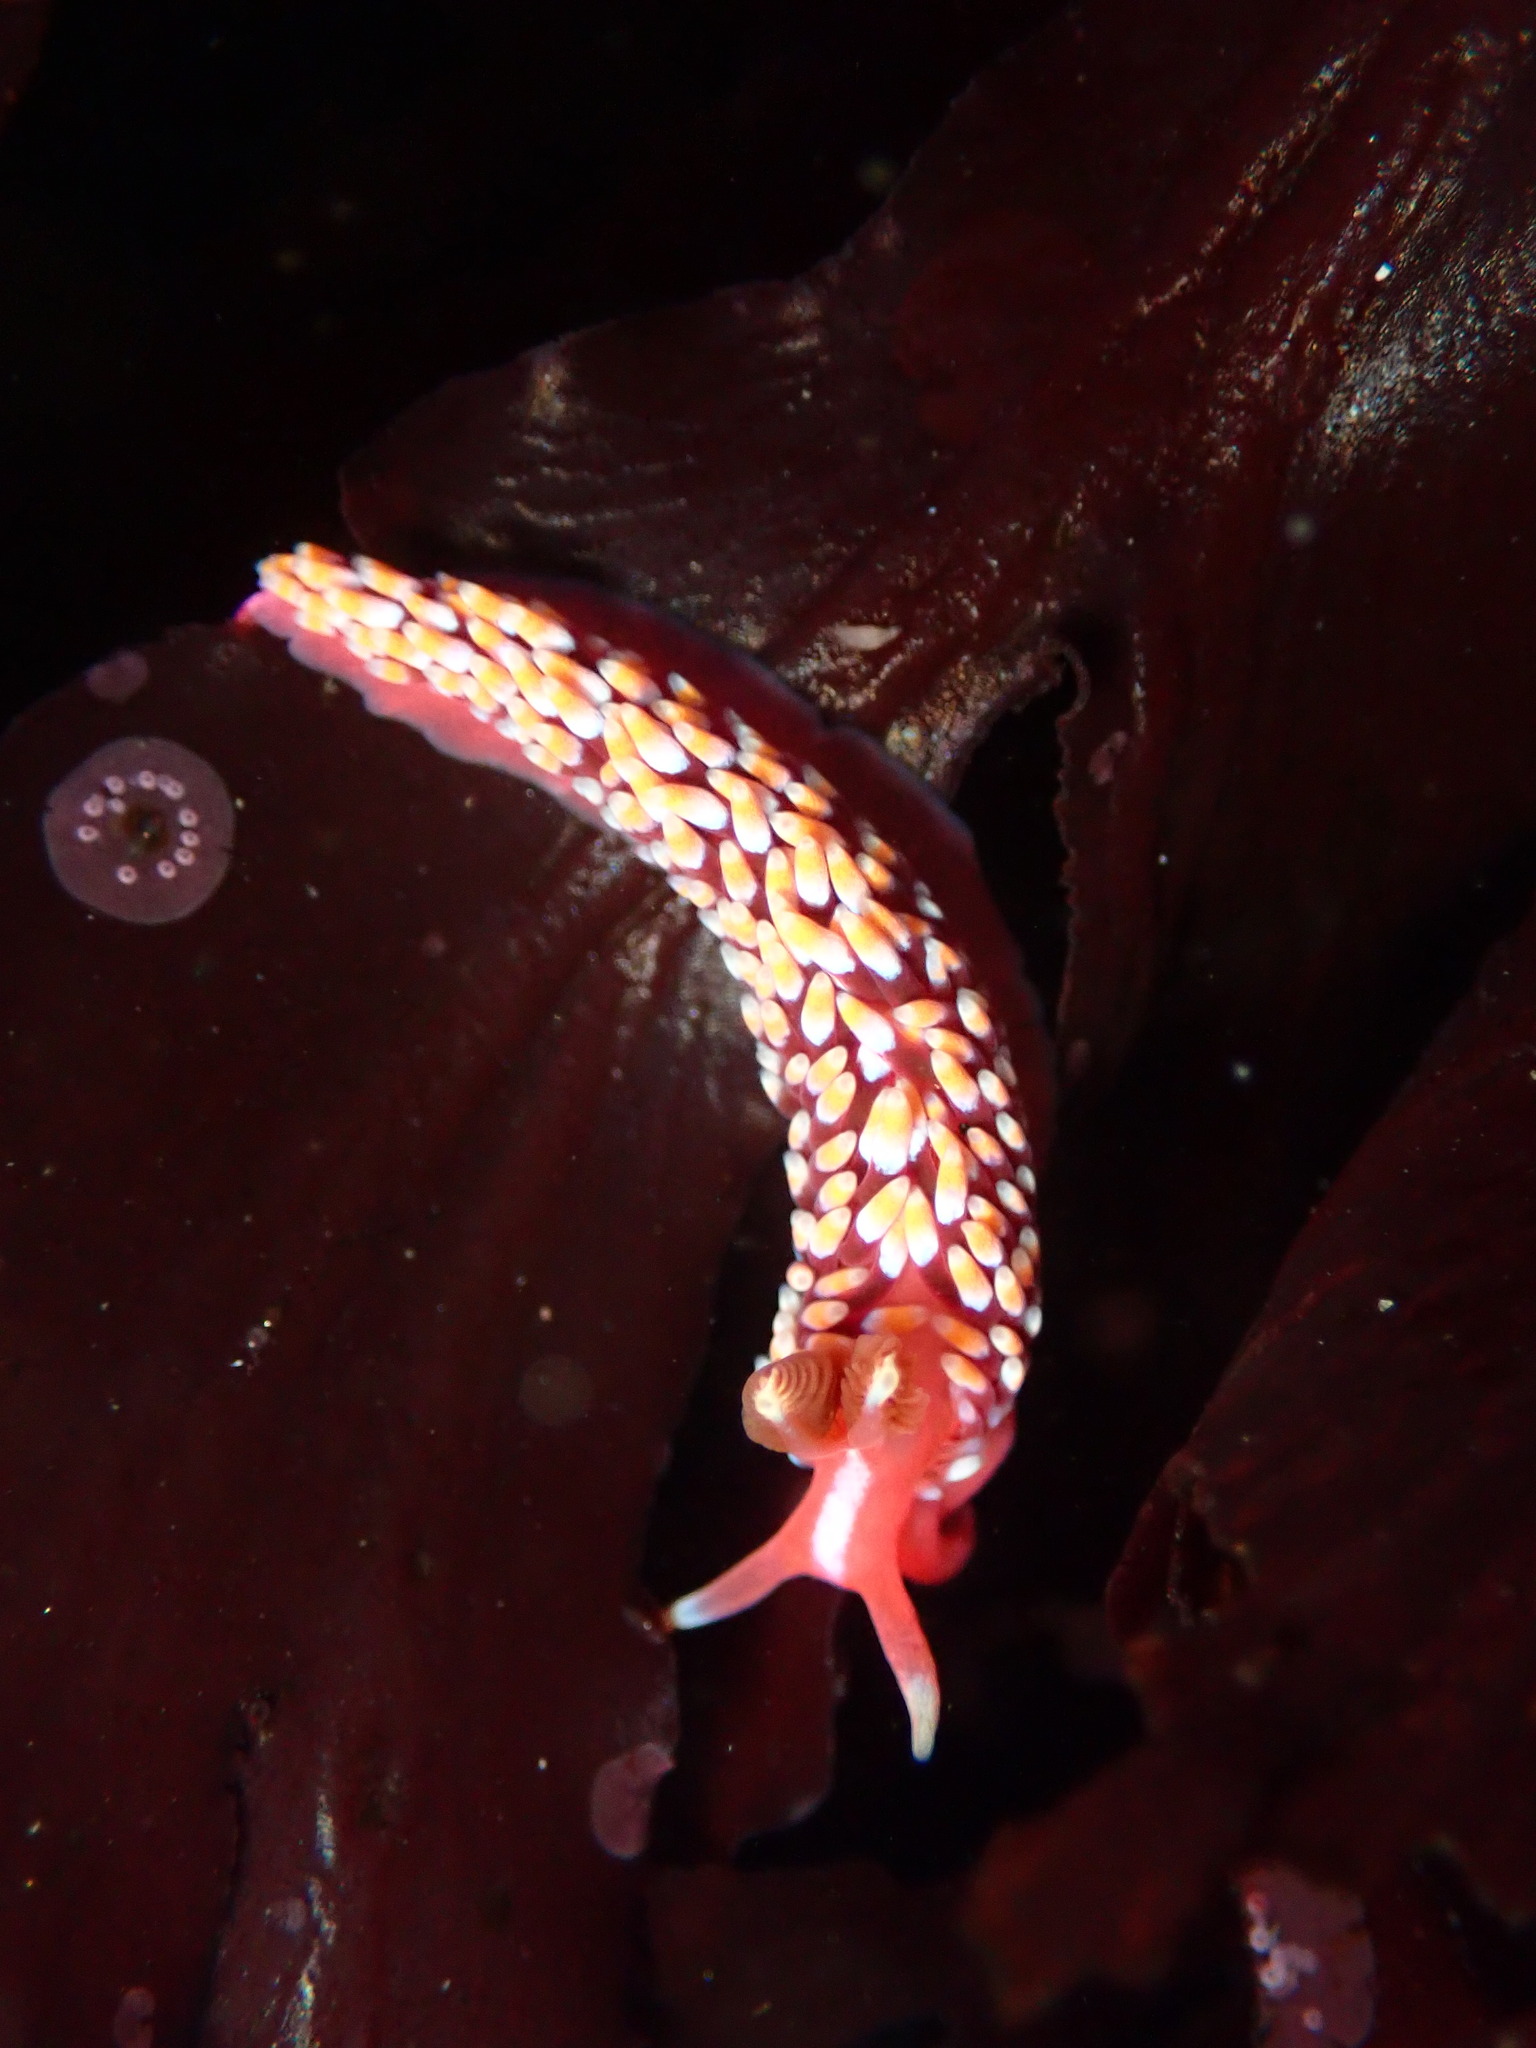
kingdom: Animalia
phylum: Mollusca
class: Gastropoda
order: Nudibranchia
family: Babakinidae
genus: Babakina
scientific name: Babakina festiva
